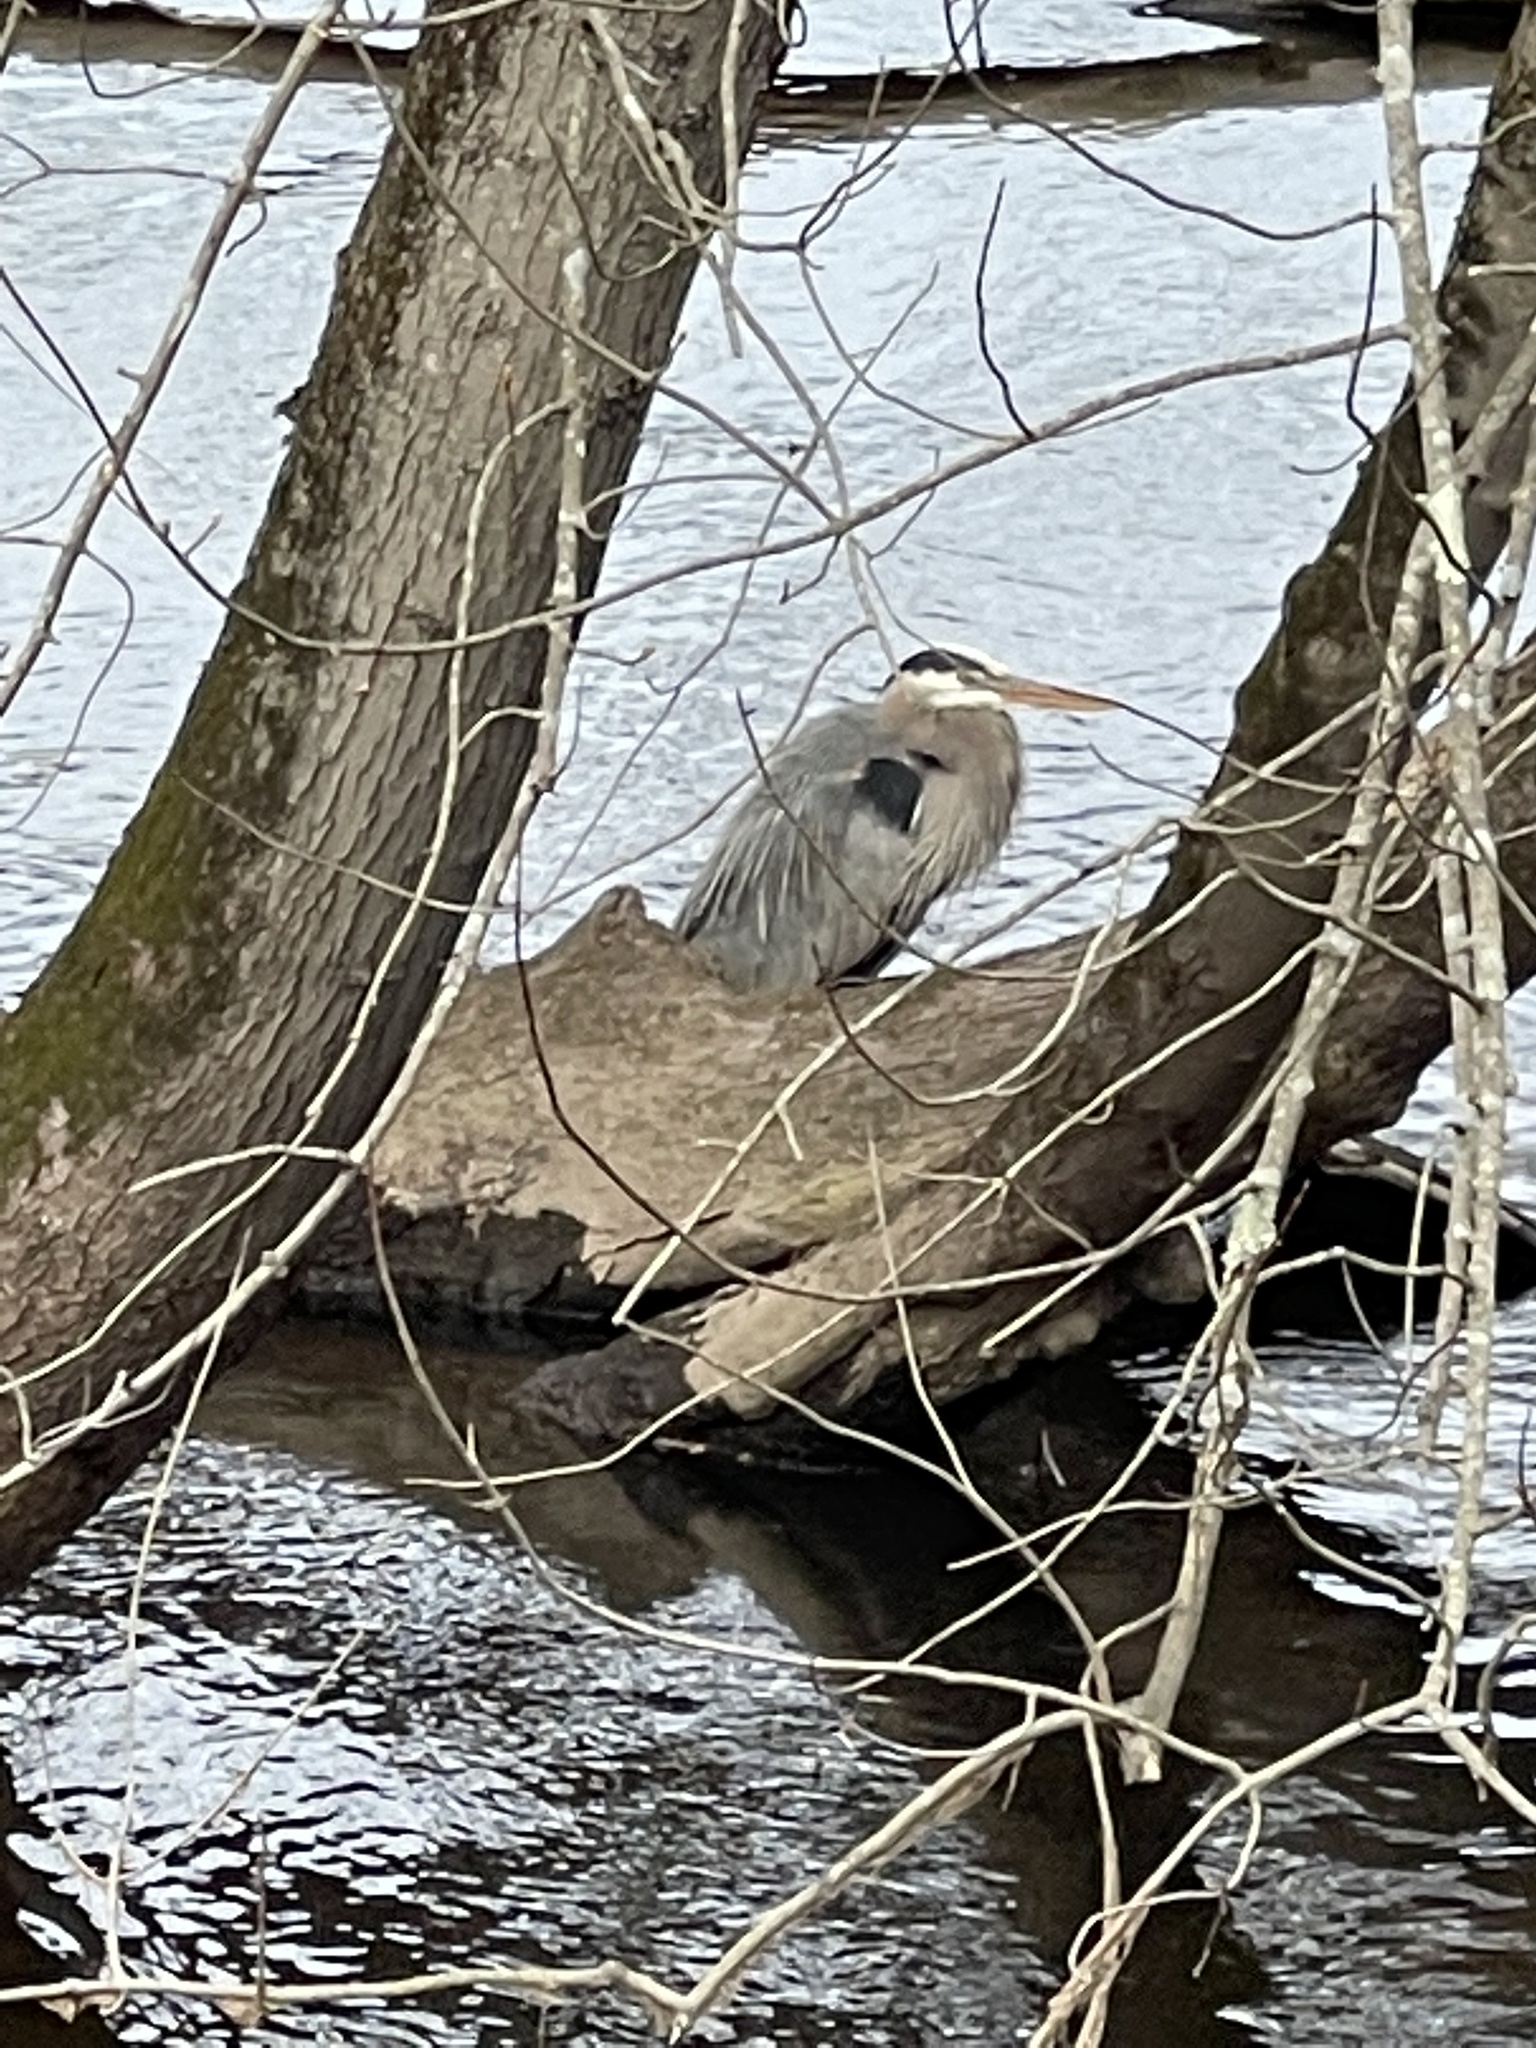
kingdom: Animalia
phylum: Chordata
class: Aves
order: Pelecaniformes
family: Ardeidae
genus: Ardea
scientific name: Ardea herodias
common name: Great blue heron
